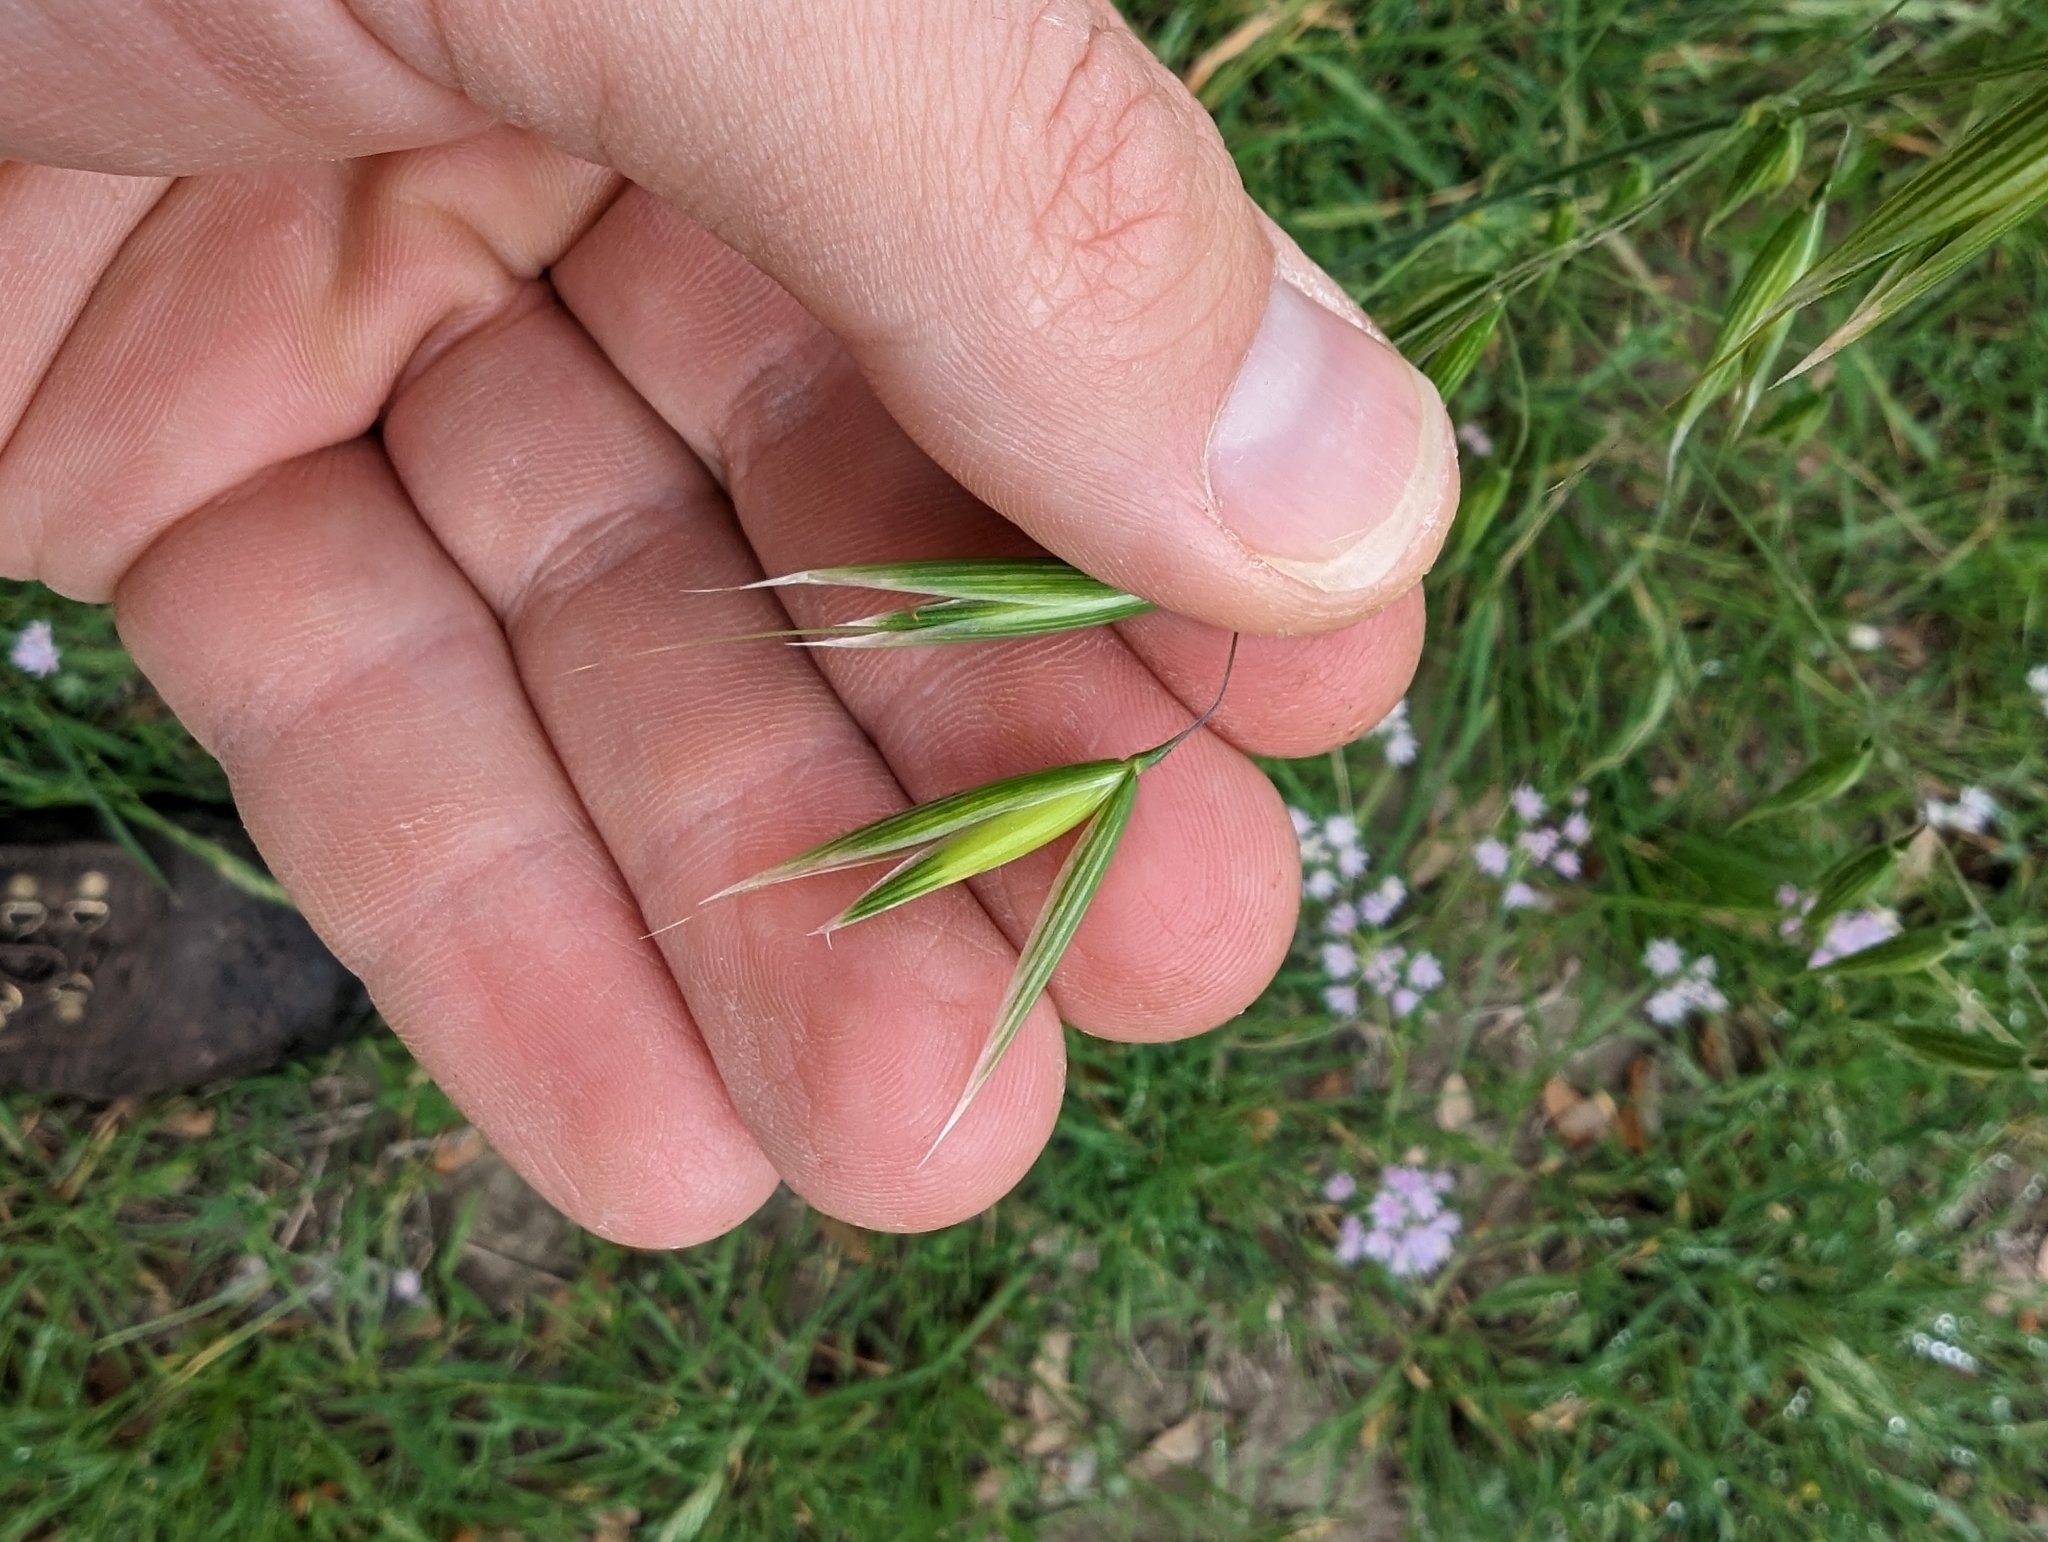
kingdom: Plantae
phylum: Tracheophyta
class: Liliopsida
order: Poales
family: Poaceae
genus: Avena
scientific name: Avena sativa
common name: Oat
